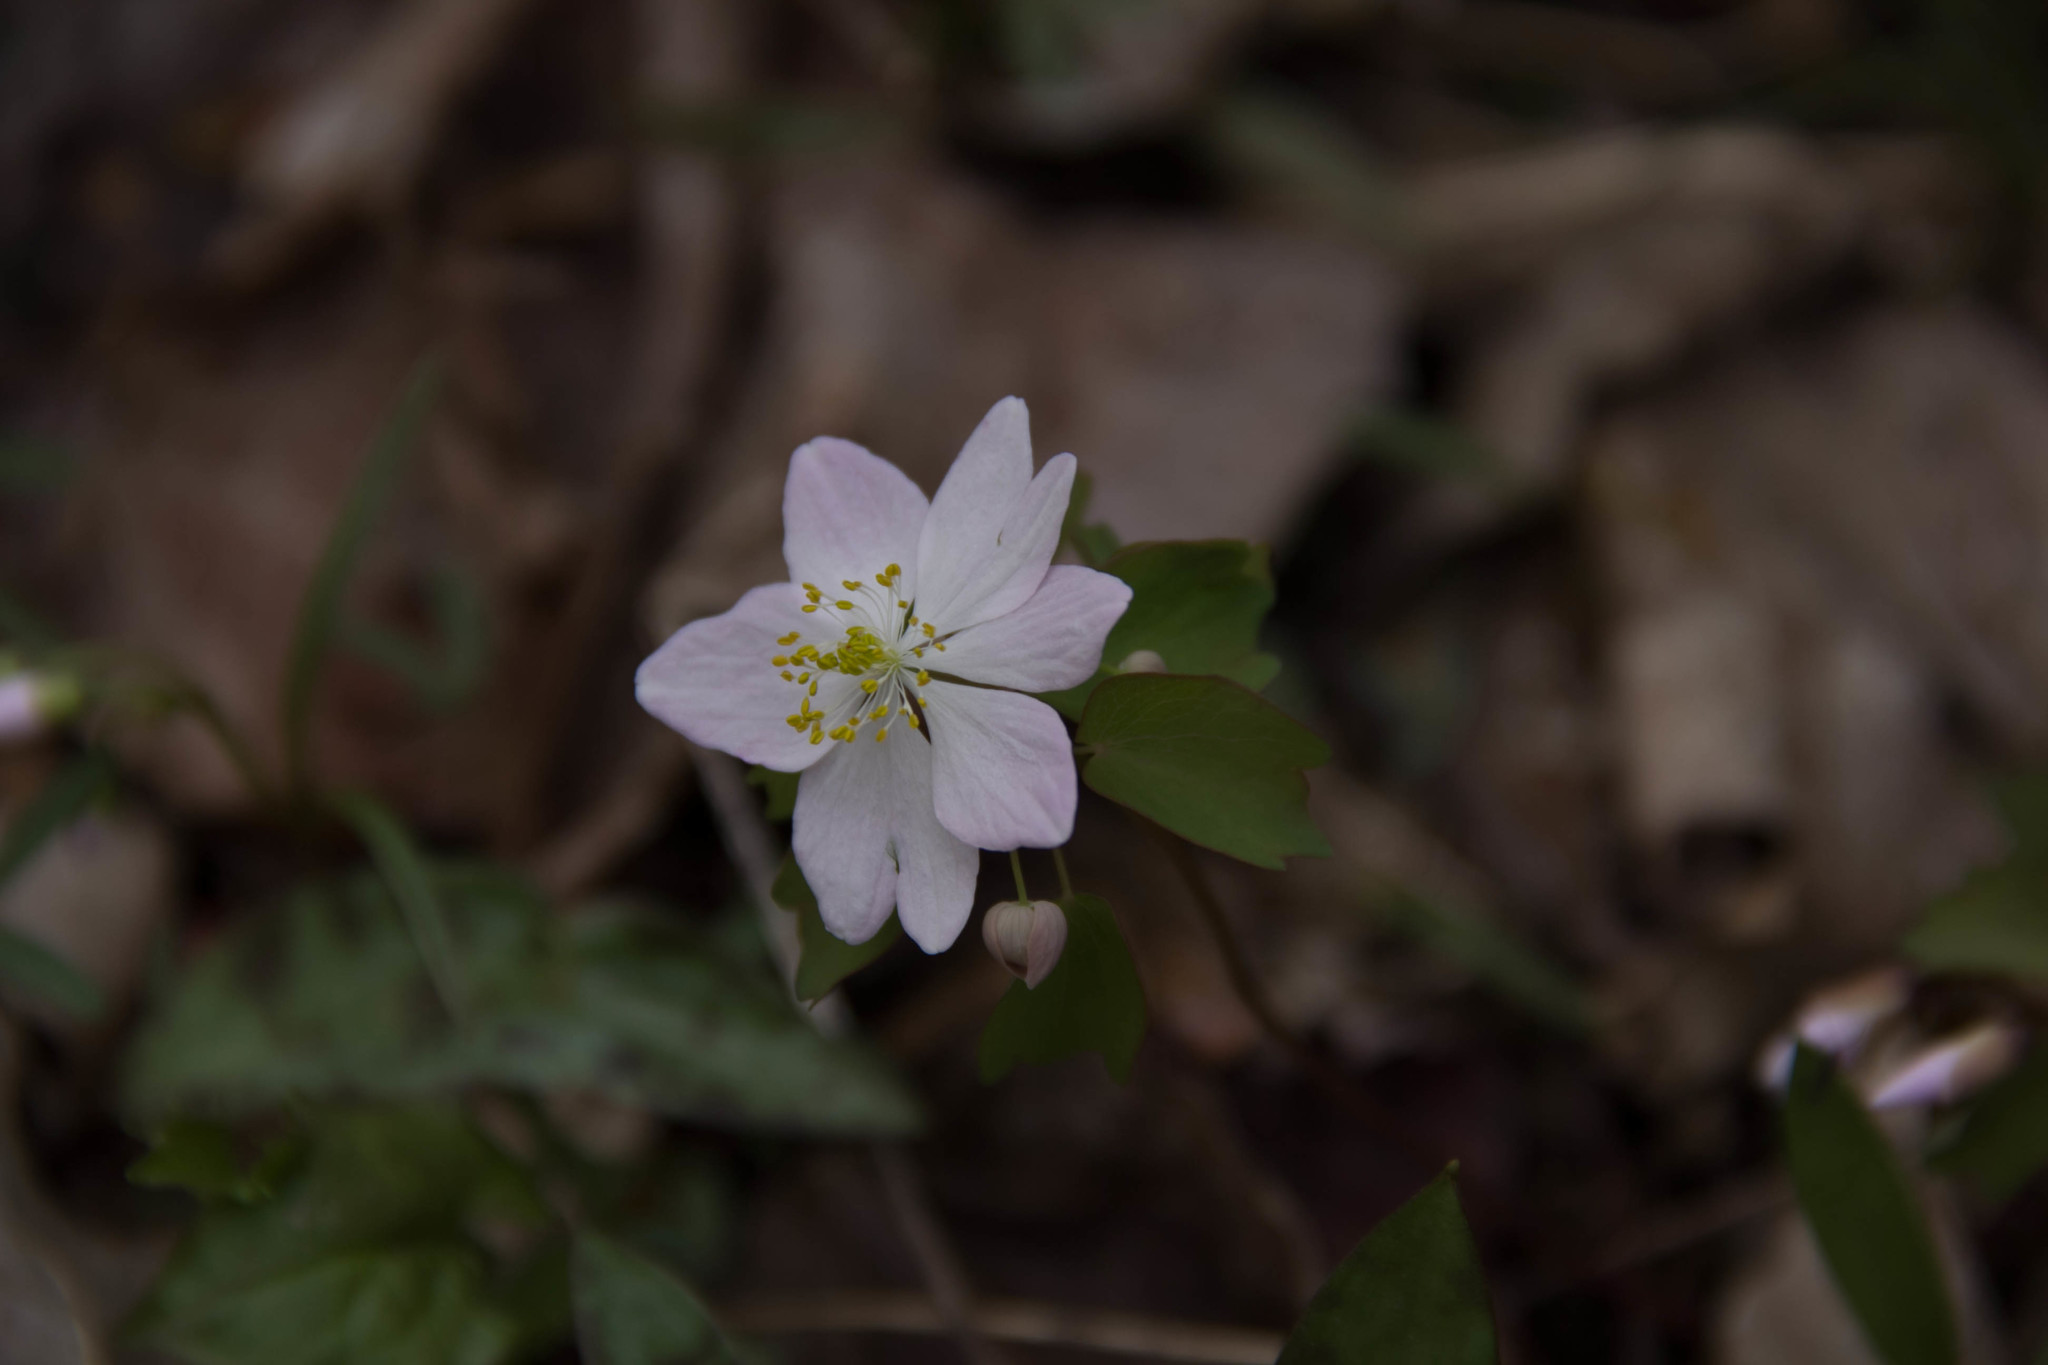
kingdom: Plantae
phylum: Tracheophyta
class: Magnoliopsida
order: Ranunculales
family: Ranunculaceae
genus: Thalictrum
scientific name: Thalictrum thalictroides
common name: Rue-anemone
